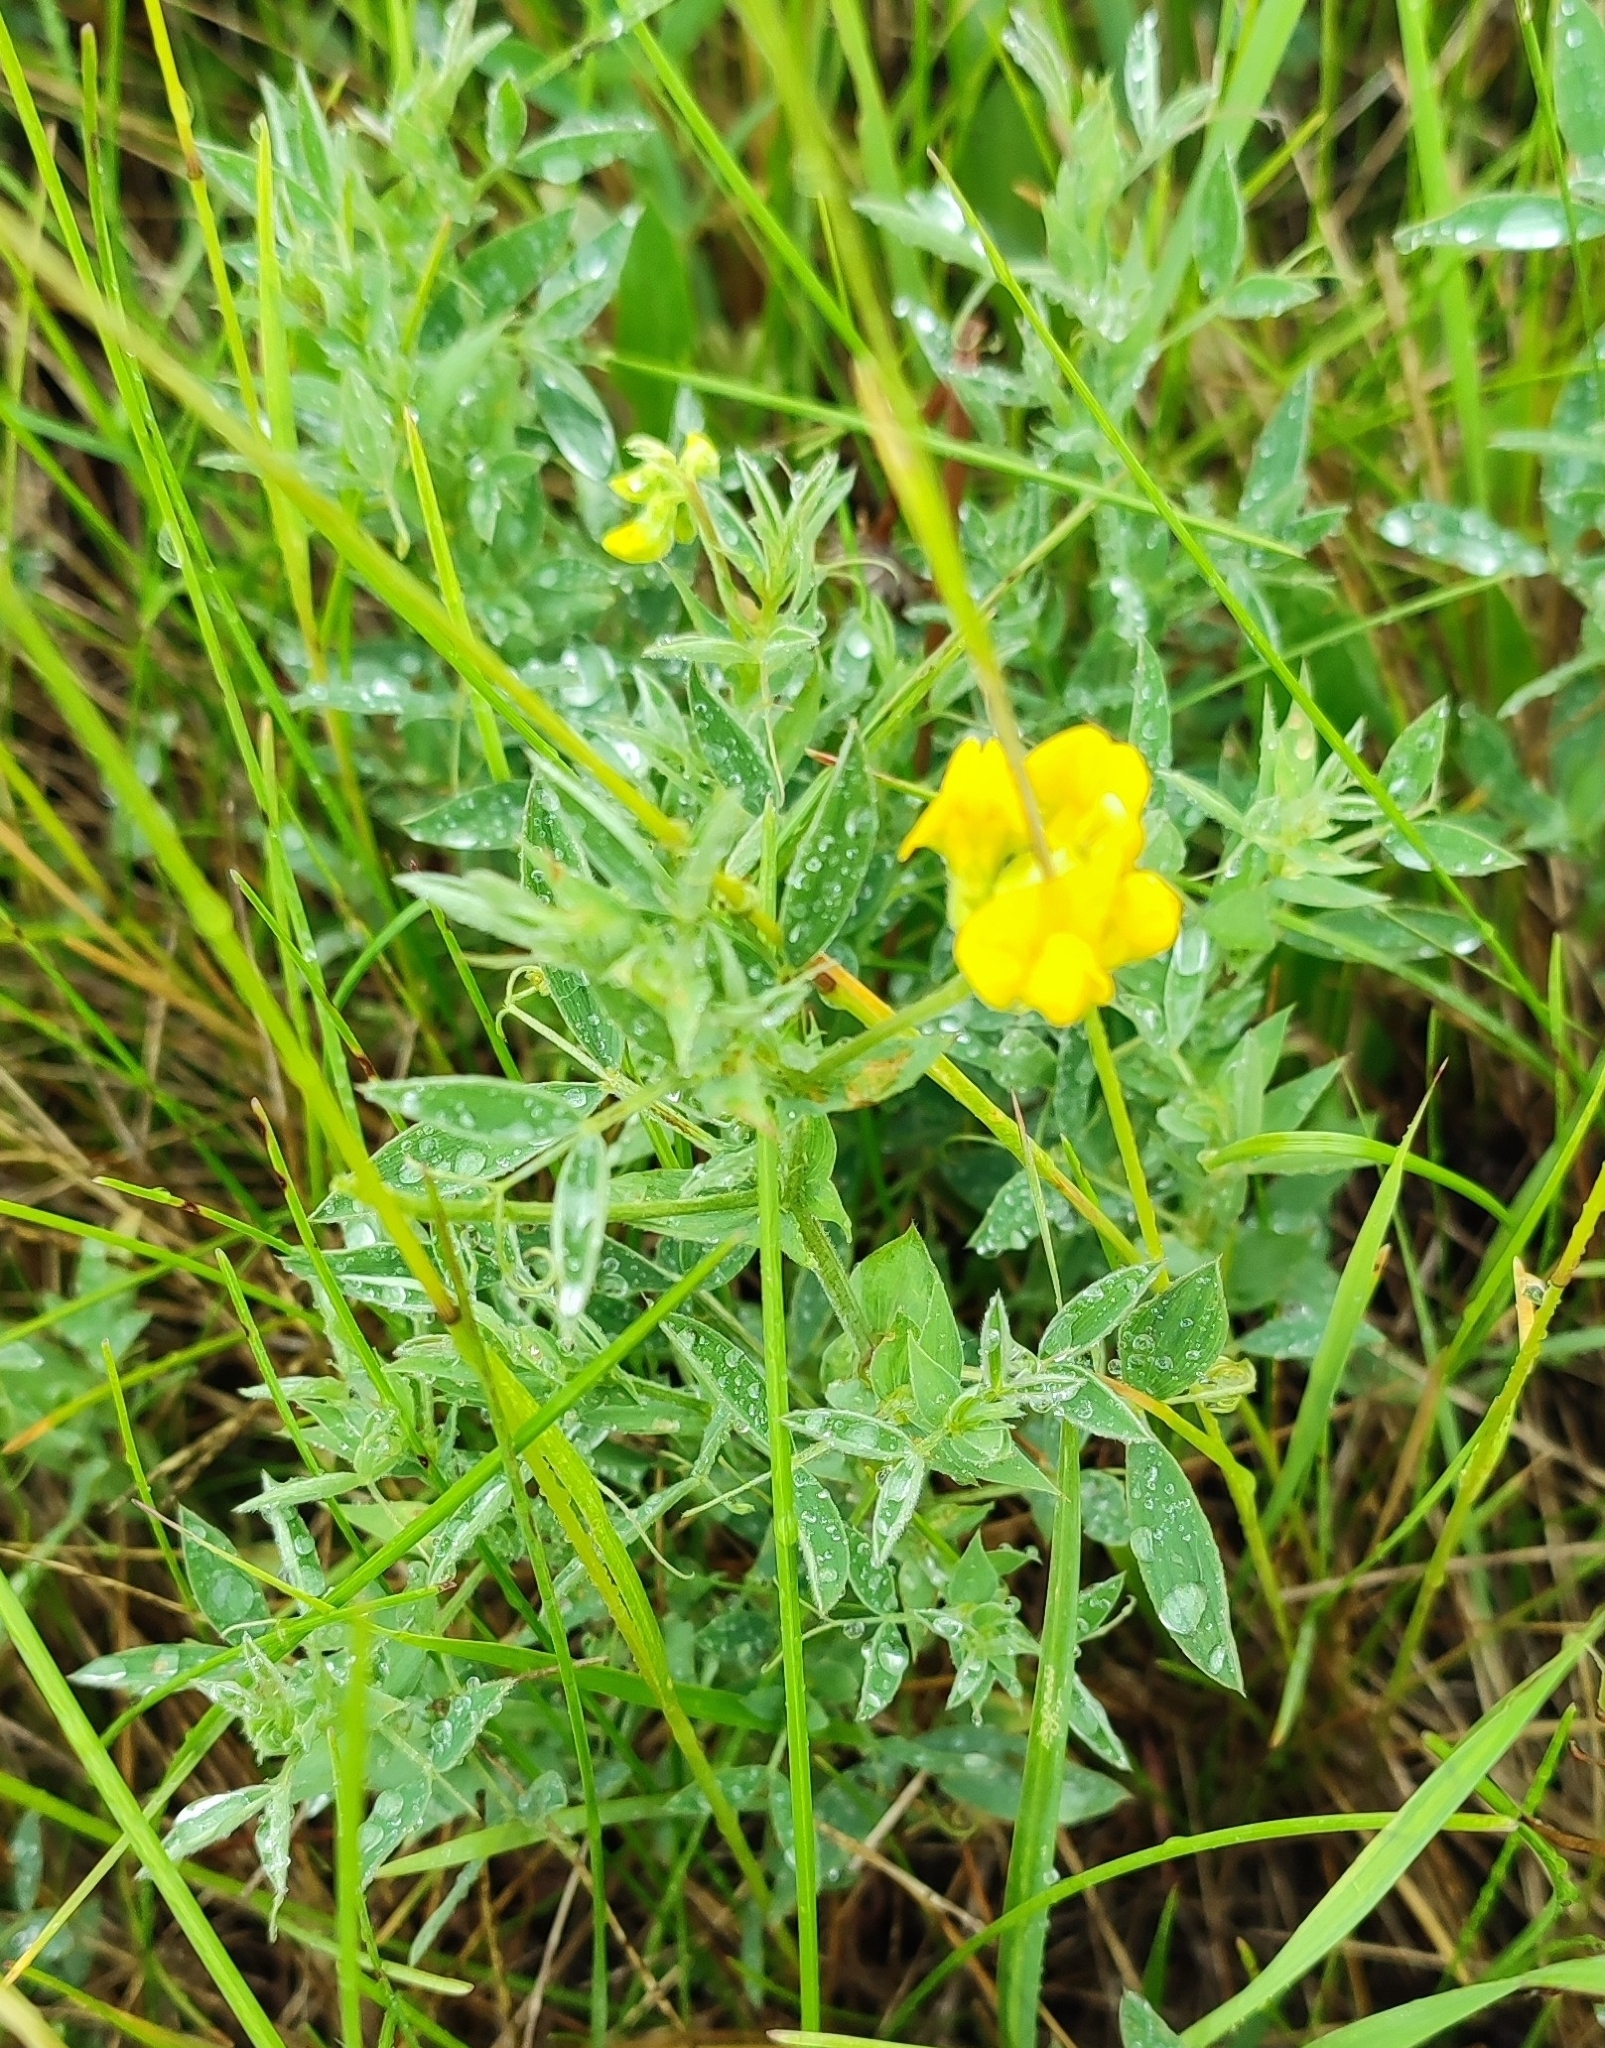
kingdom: Plantae
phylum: Tracheophyta
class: Magnoliopsida
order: Fabales
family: Fabaceae
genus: Lathyrus
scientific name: Lathyrus pratensis
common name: Meadow vetchling
